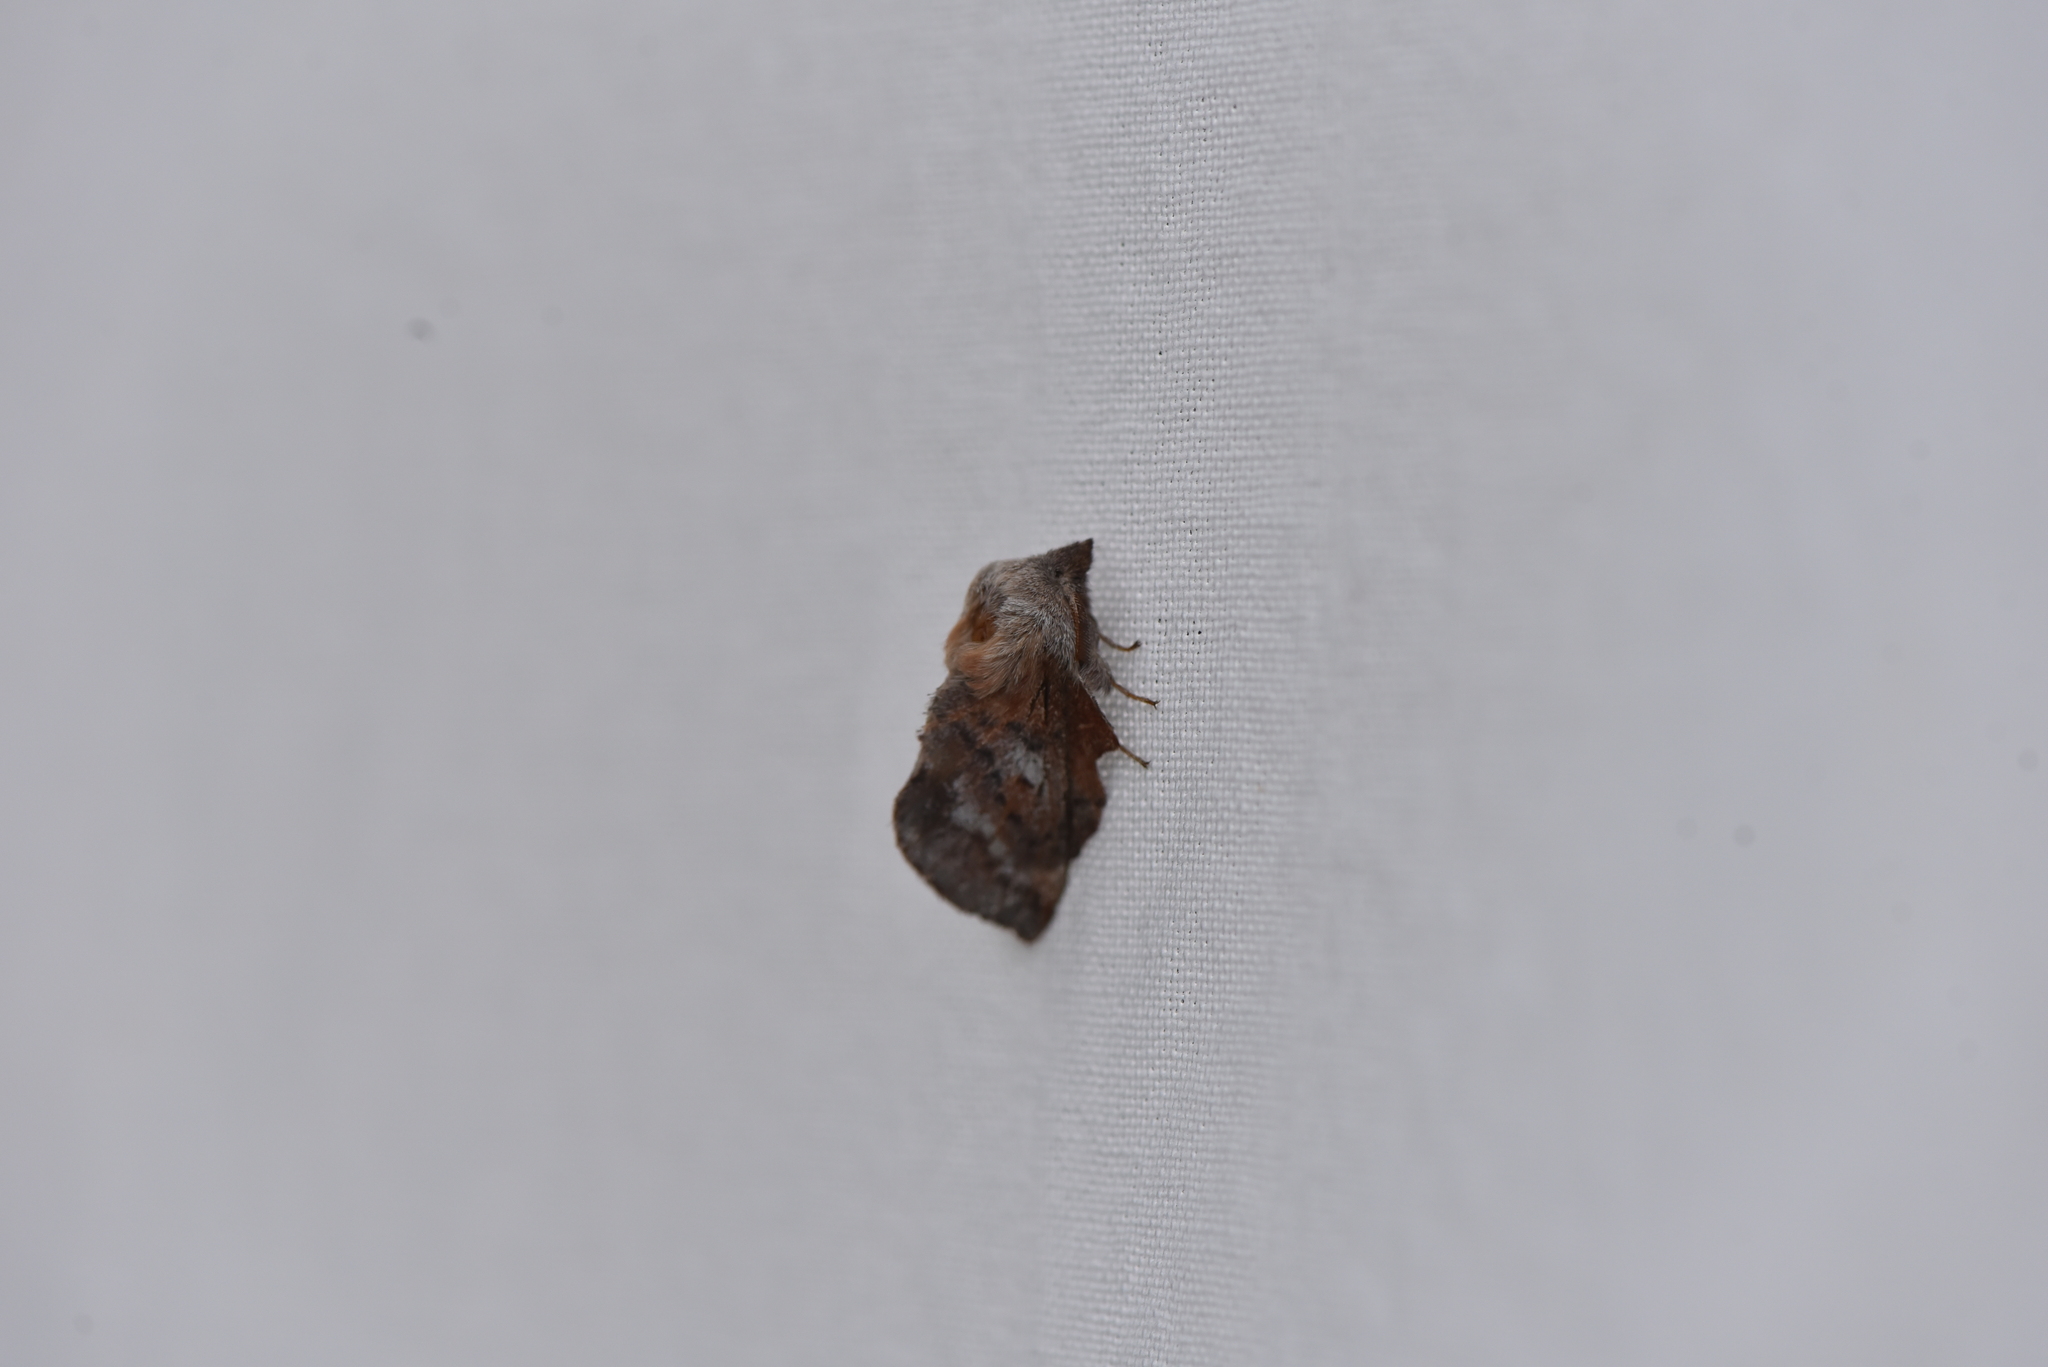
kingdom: Animalia
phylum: Arthropoda
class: Insecta
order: Lepidoptera
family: Lasiocampidae
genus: Phyllodesma
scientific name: Phyllodesma americana
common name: American lappet moth
